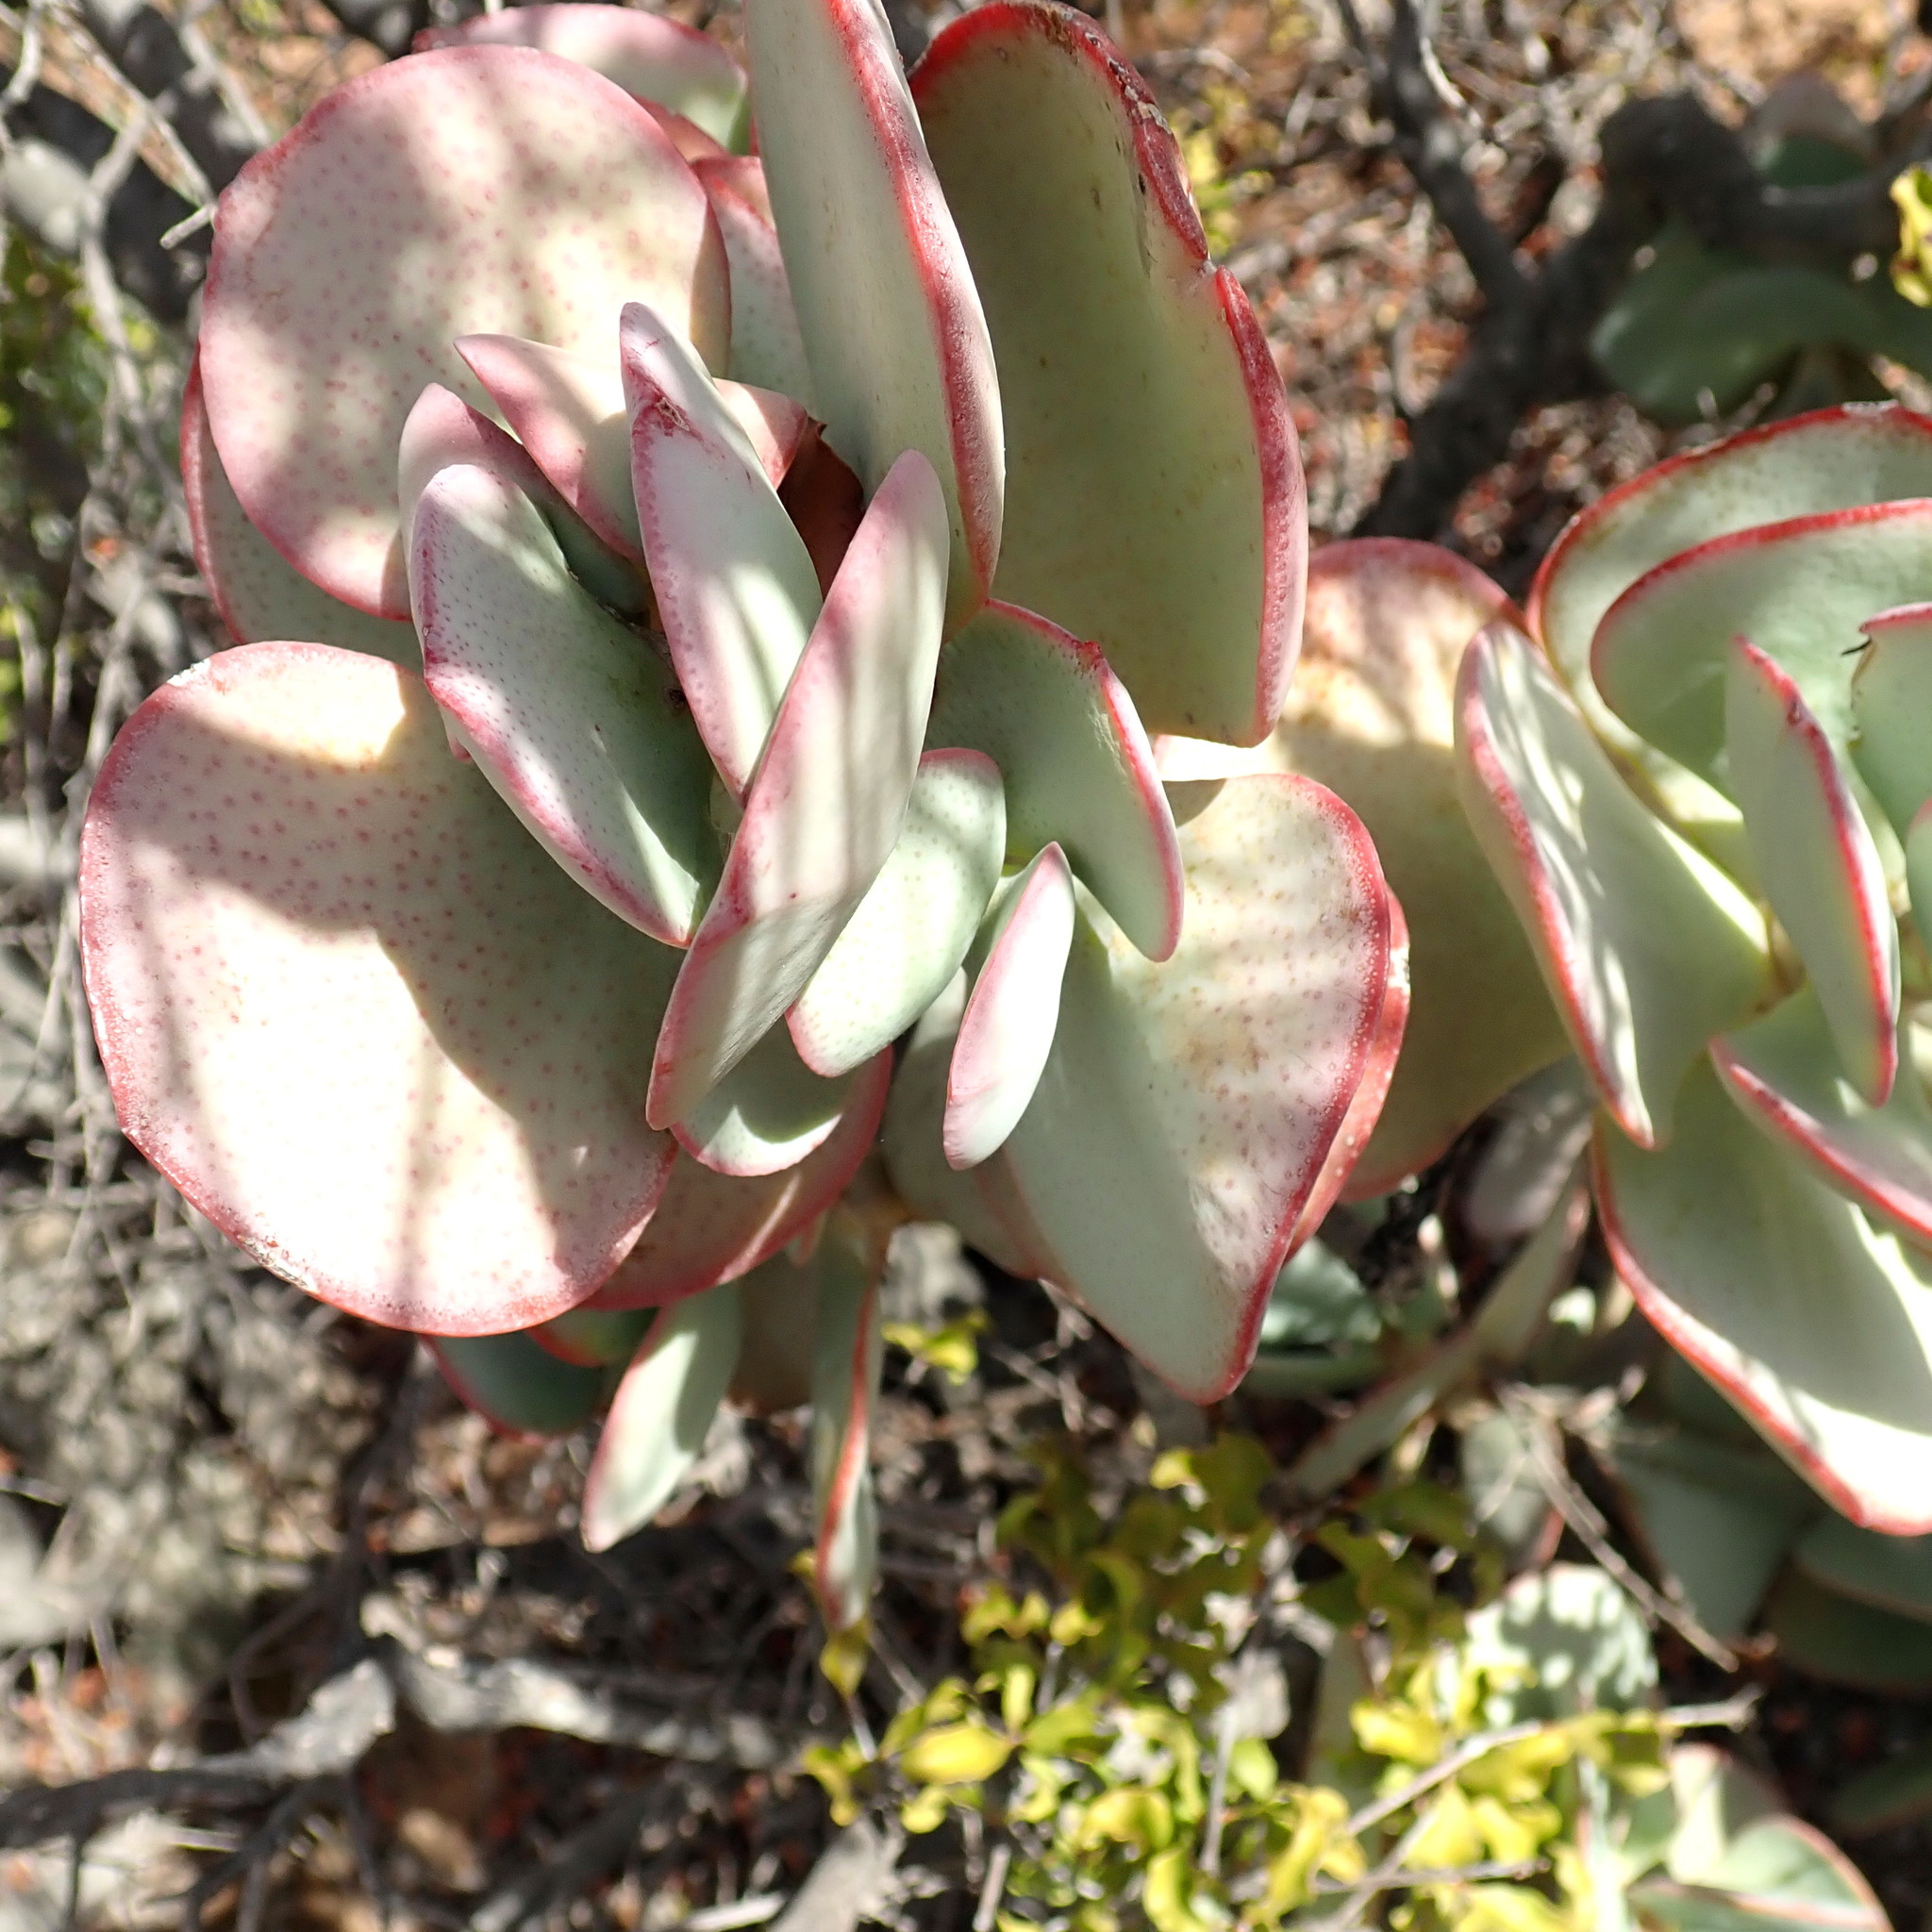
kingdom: Plantae
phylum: Tracheophyta
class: Magnoliopsida
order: Saxifragales
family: Crassulaceae
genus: Crassula
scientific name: Crassula arborescens
